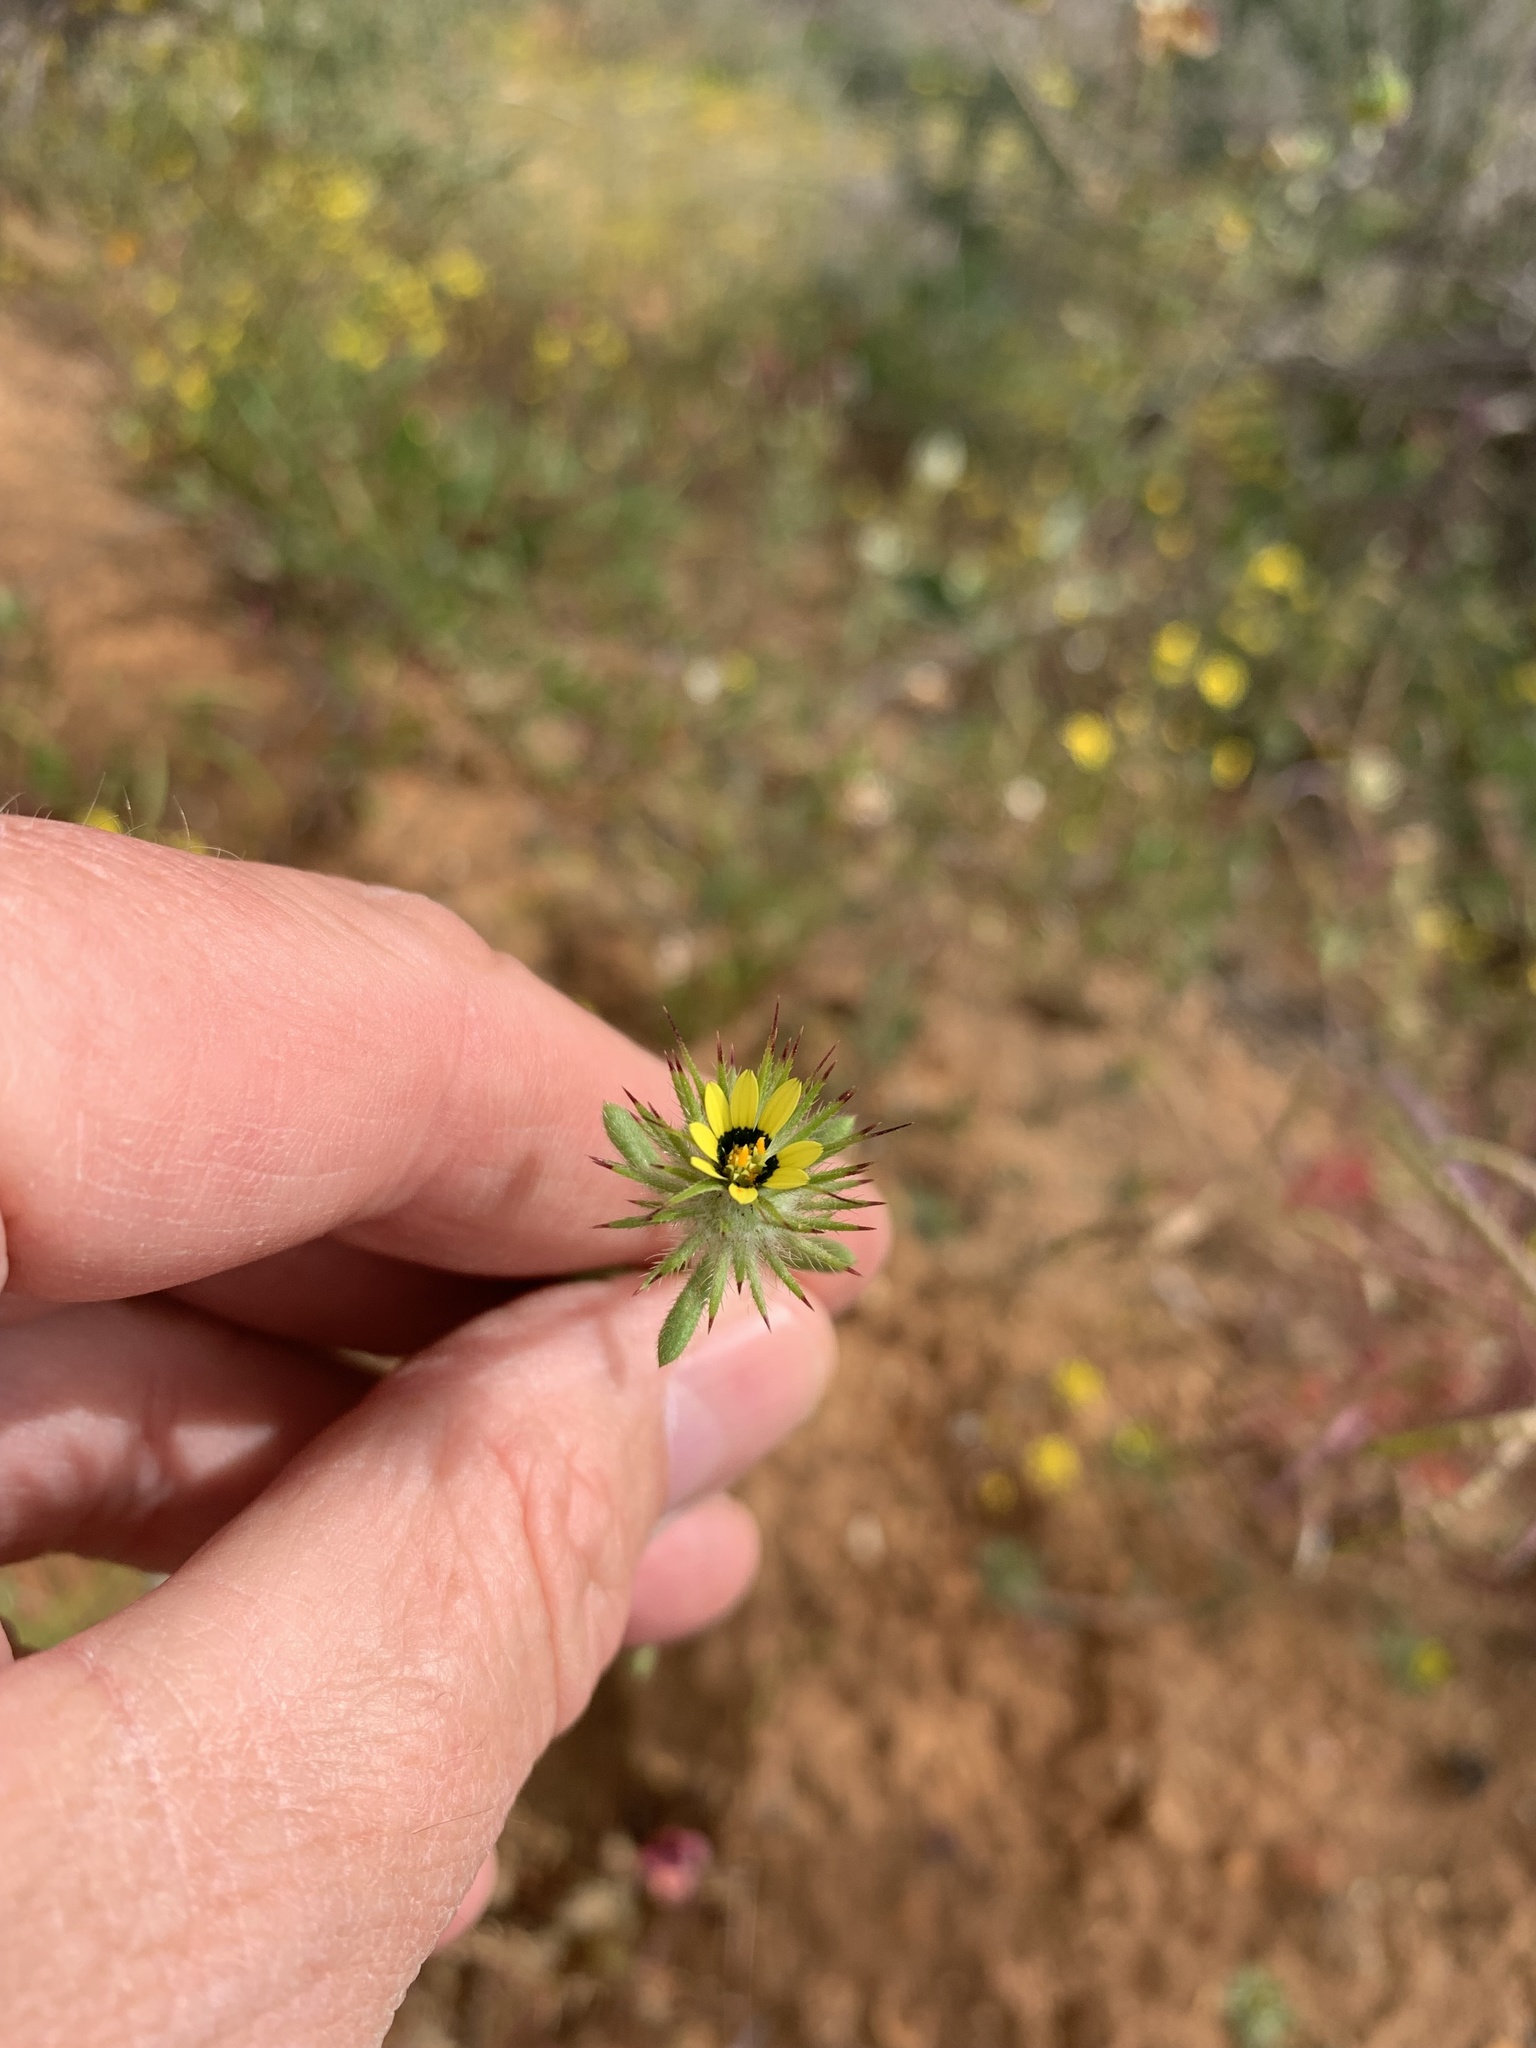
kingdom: Plantae
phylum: Tracheophyta
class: Magnoliopsida
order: Asterales
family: Asteraceae
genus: Gorteria
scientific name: Gorteria personata
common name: Gorteria
